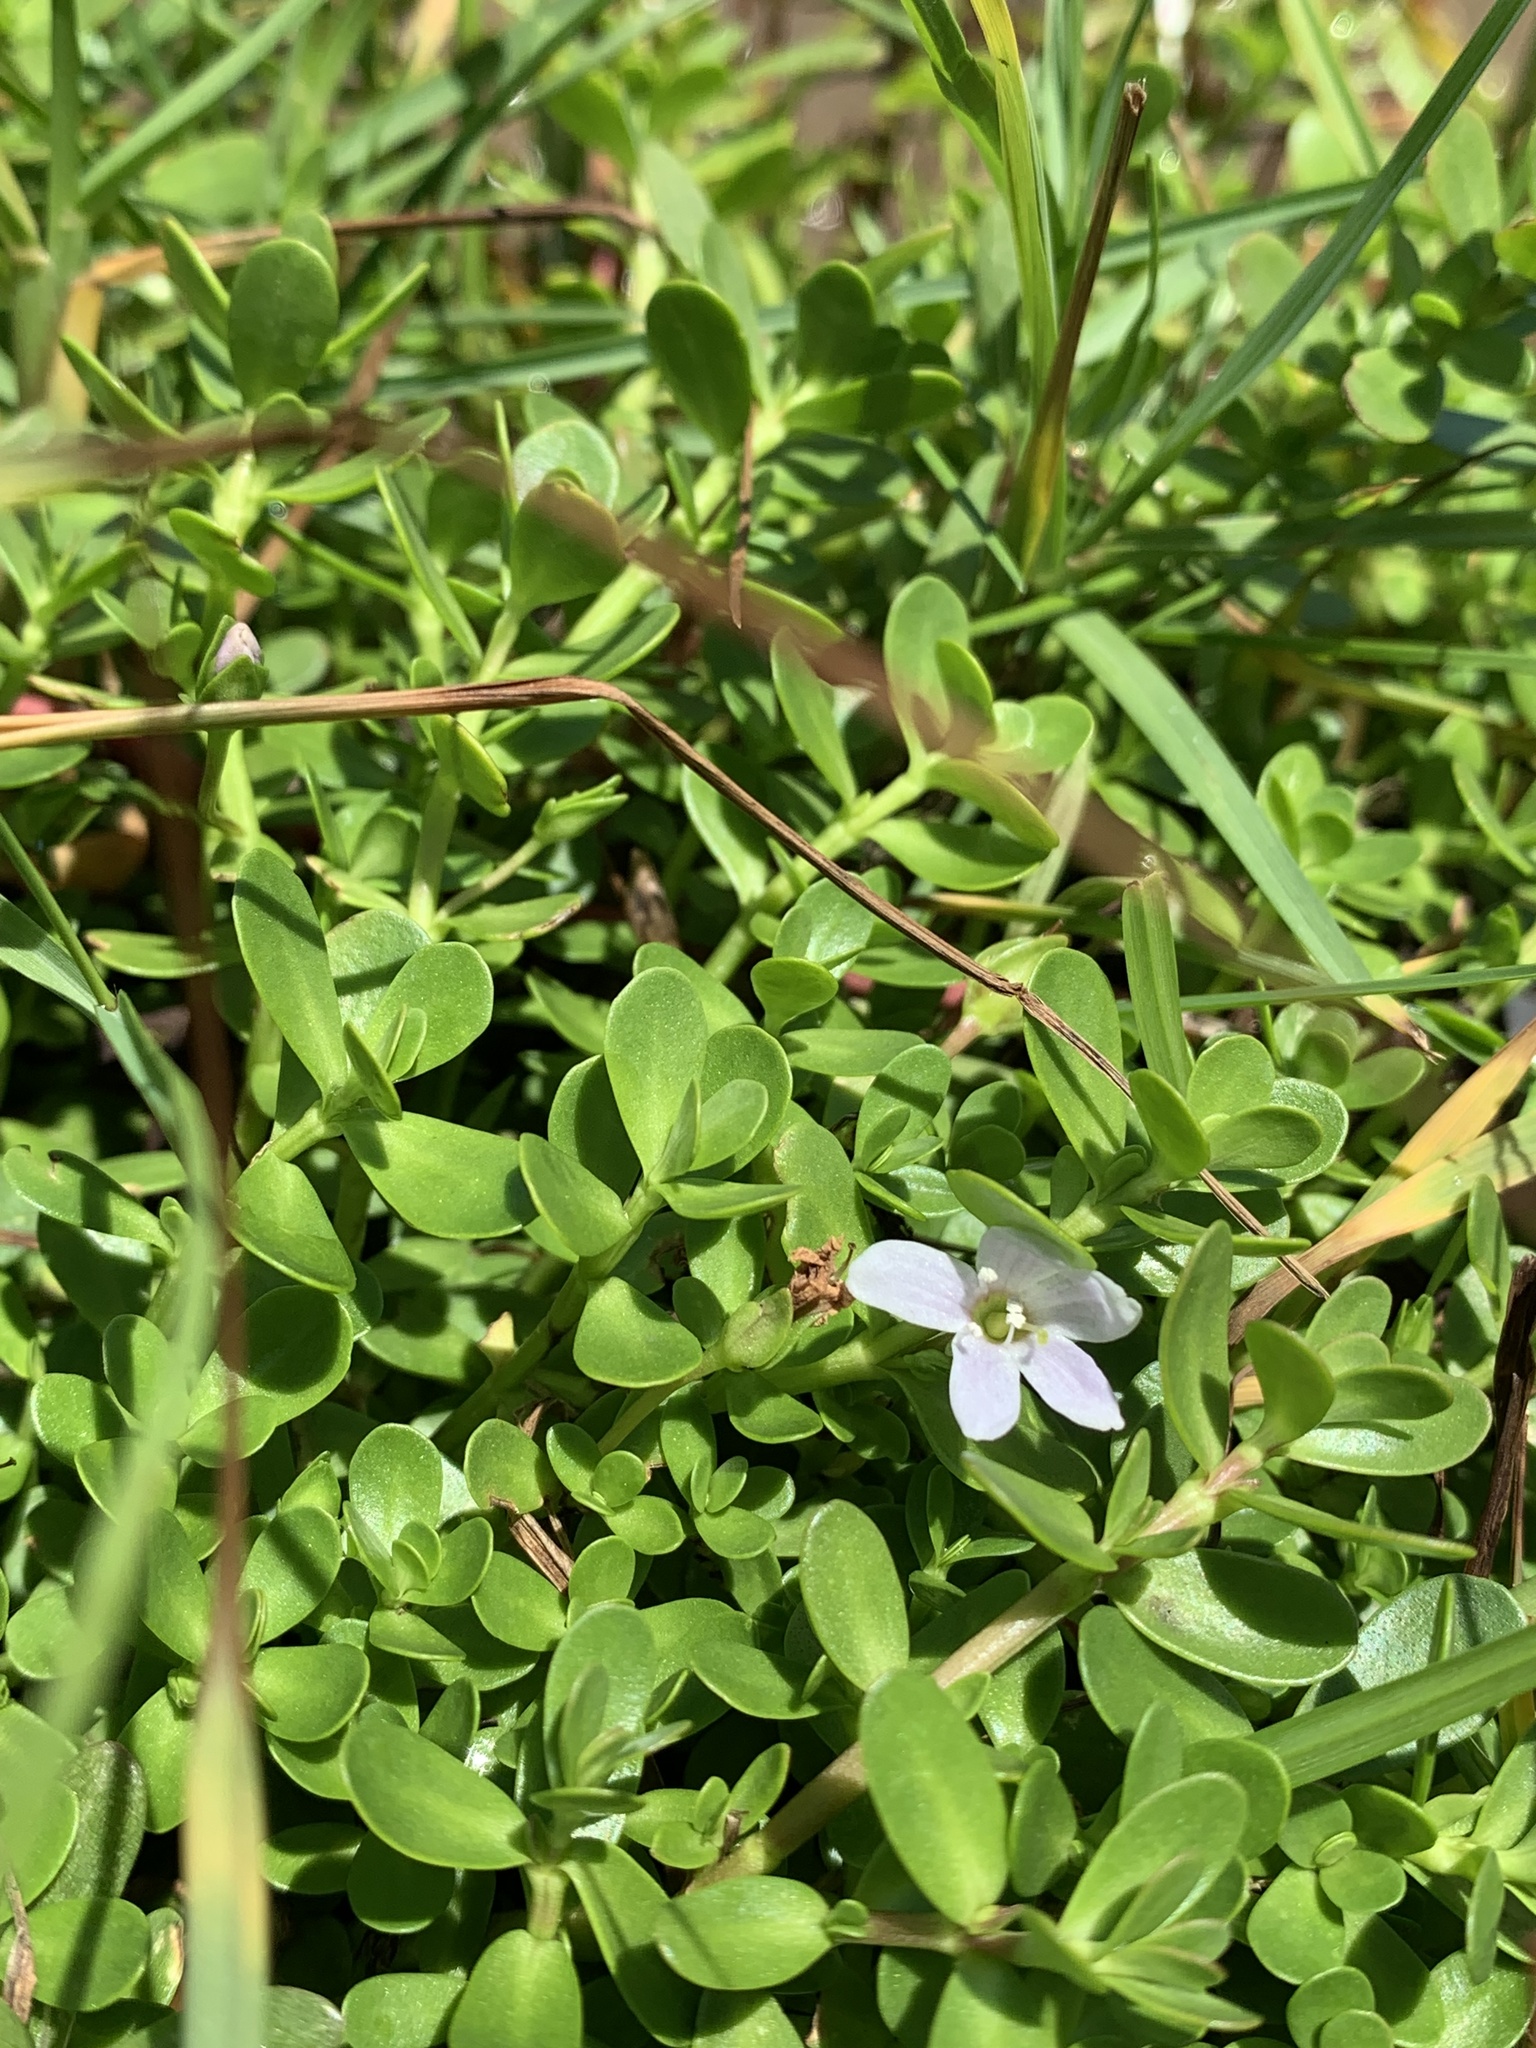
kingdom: Plantae
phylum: Tracheophyta
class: Magnoliopsida
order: Lamiales
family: Plantaginaceae
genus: Bacopa
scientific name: Bacopa monnieri
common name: Indian-pennywort
